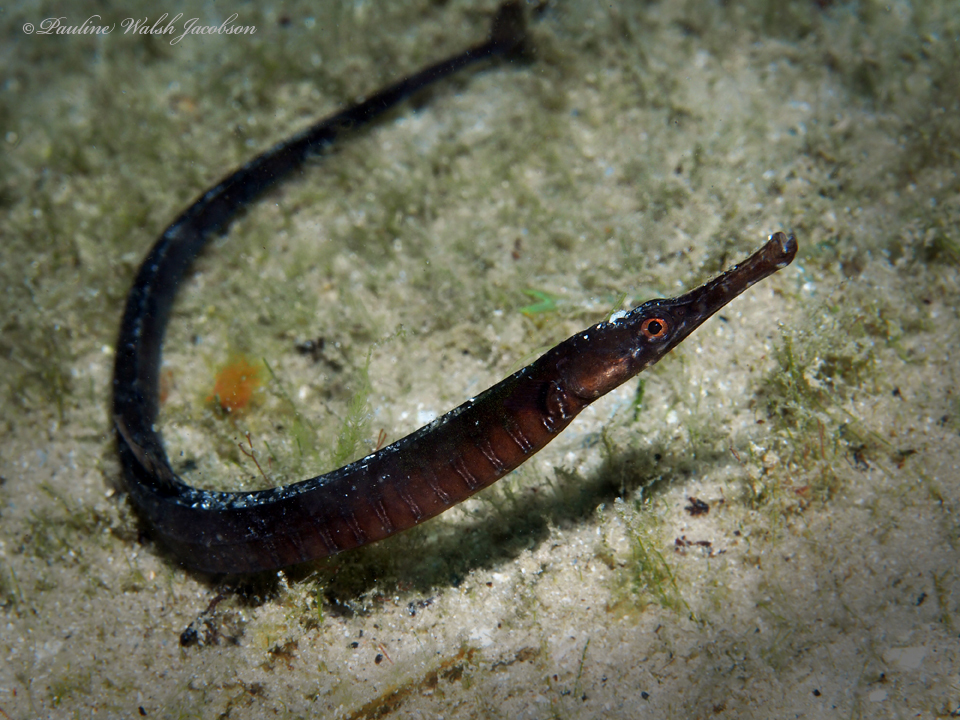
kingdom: Animalia
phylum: Chordata
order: Syngnathiformes
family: Syngnathidae
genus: Syngnathus
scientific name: Syngnathus louisianae
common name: Chain pipefish
